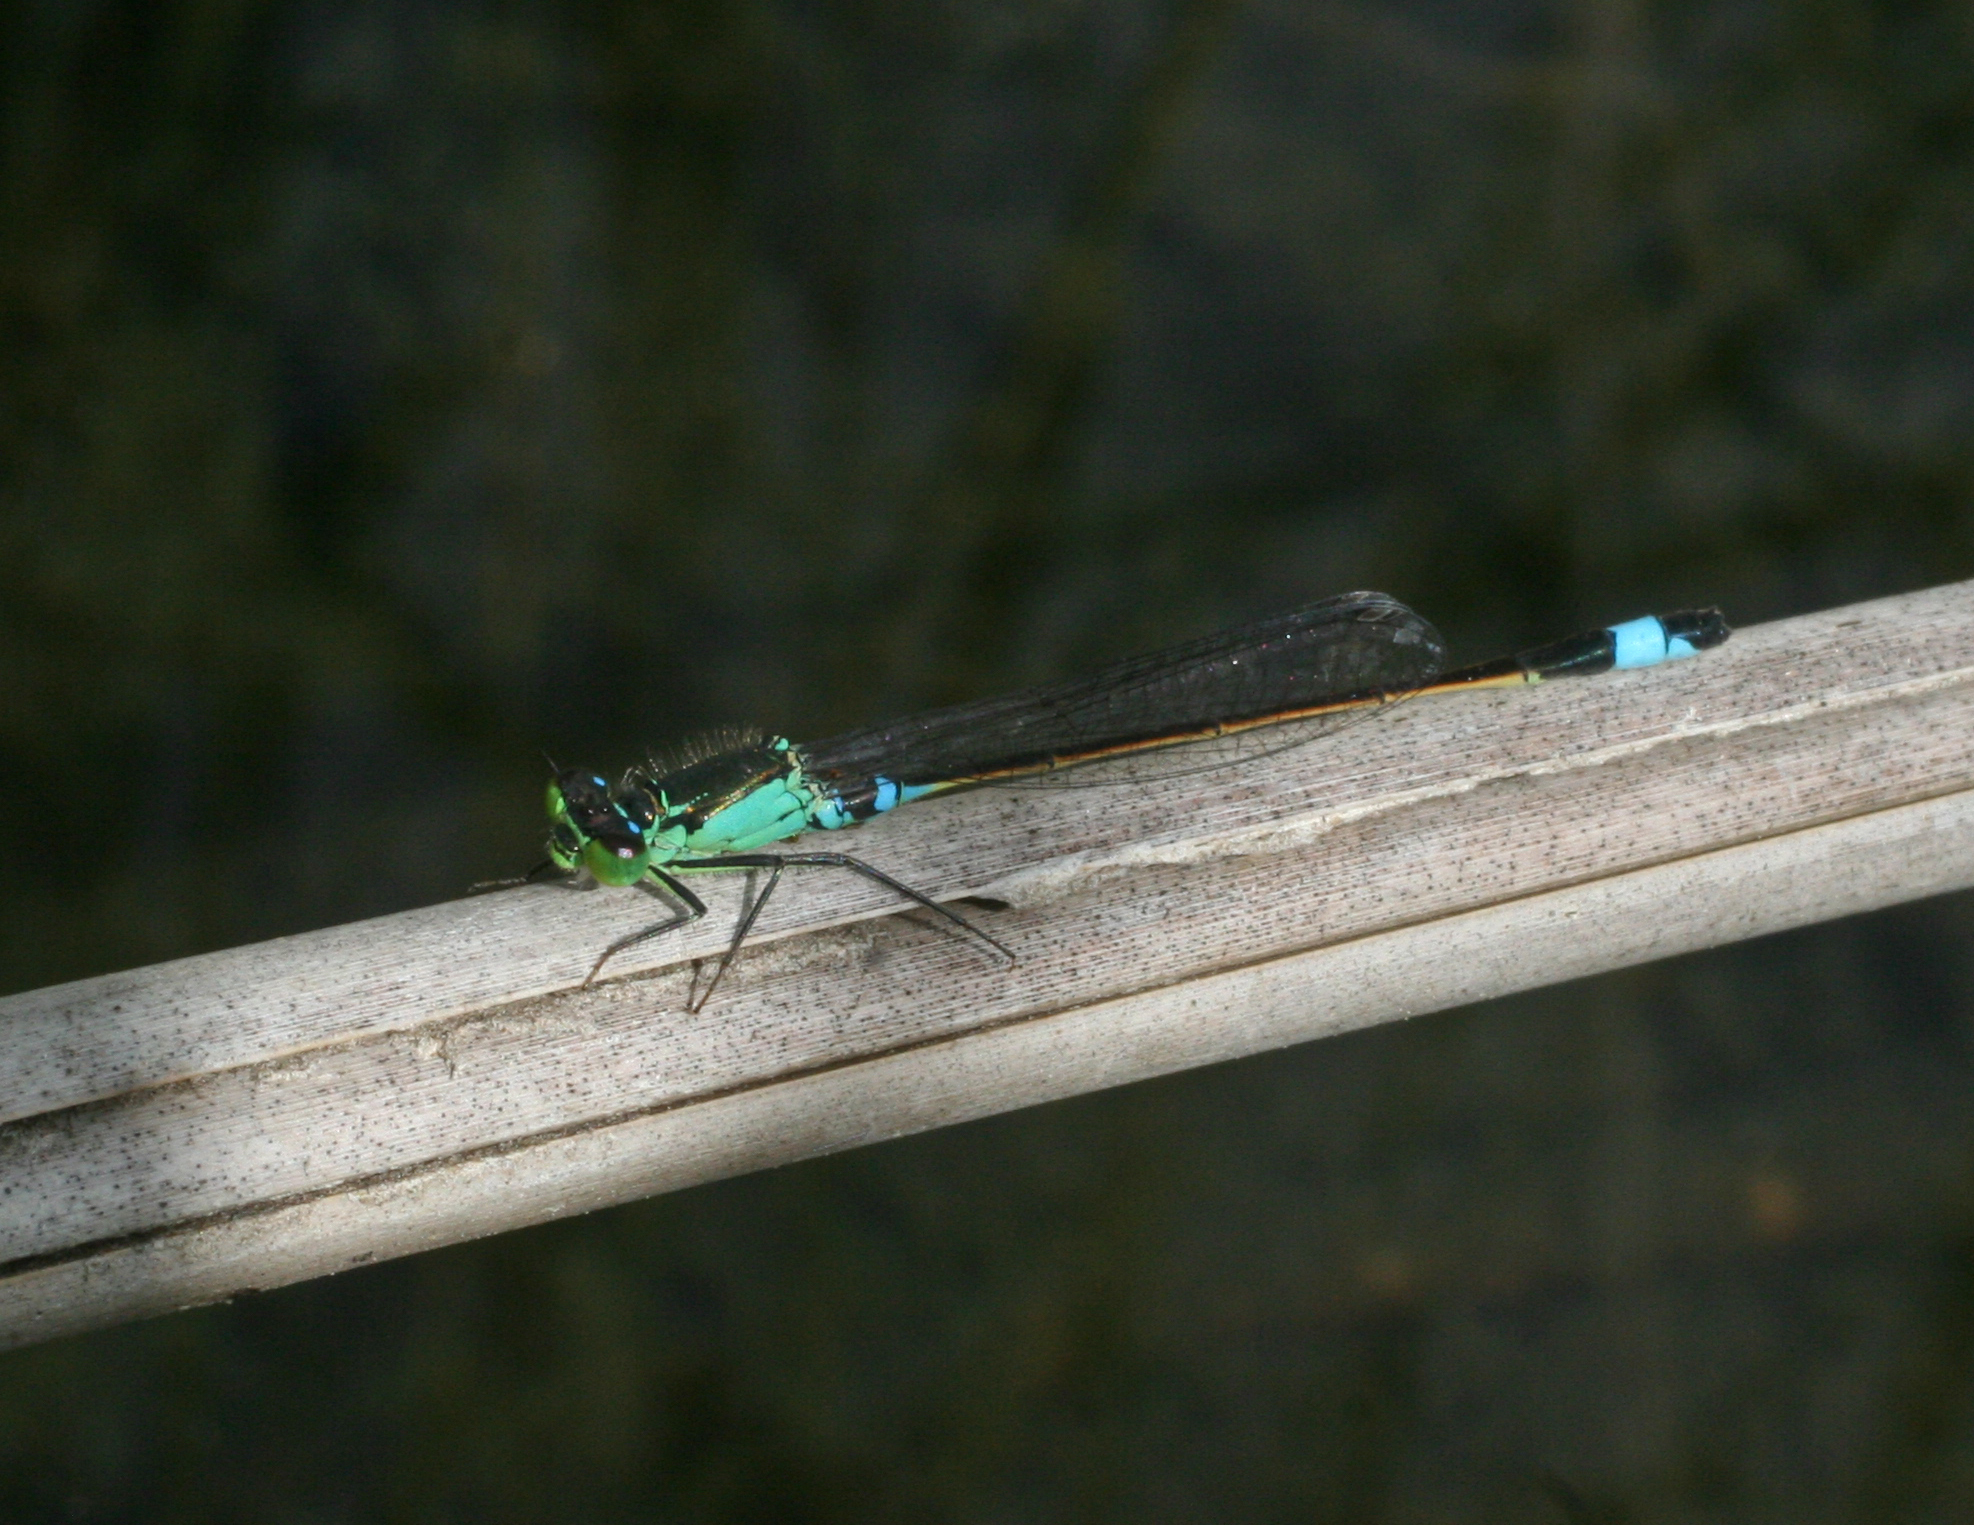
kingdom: Animalia
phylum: Arthropoda
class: Insecta
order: Odonata
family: Coenagrionidae
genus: Ischnura
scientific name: Ischnura aralensis
